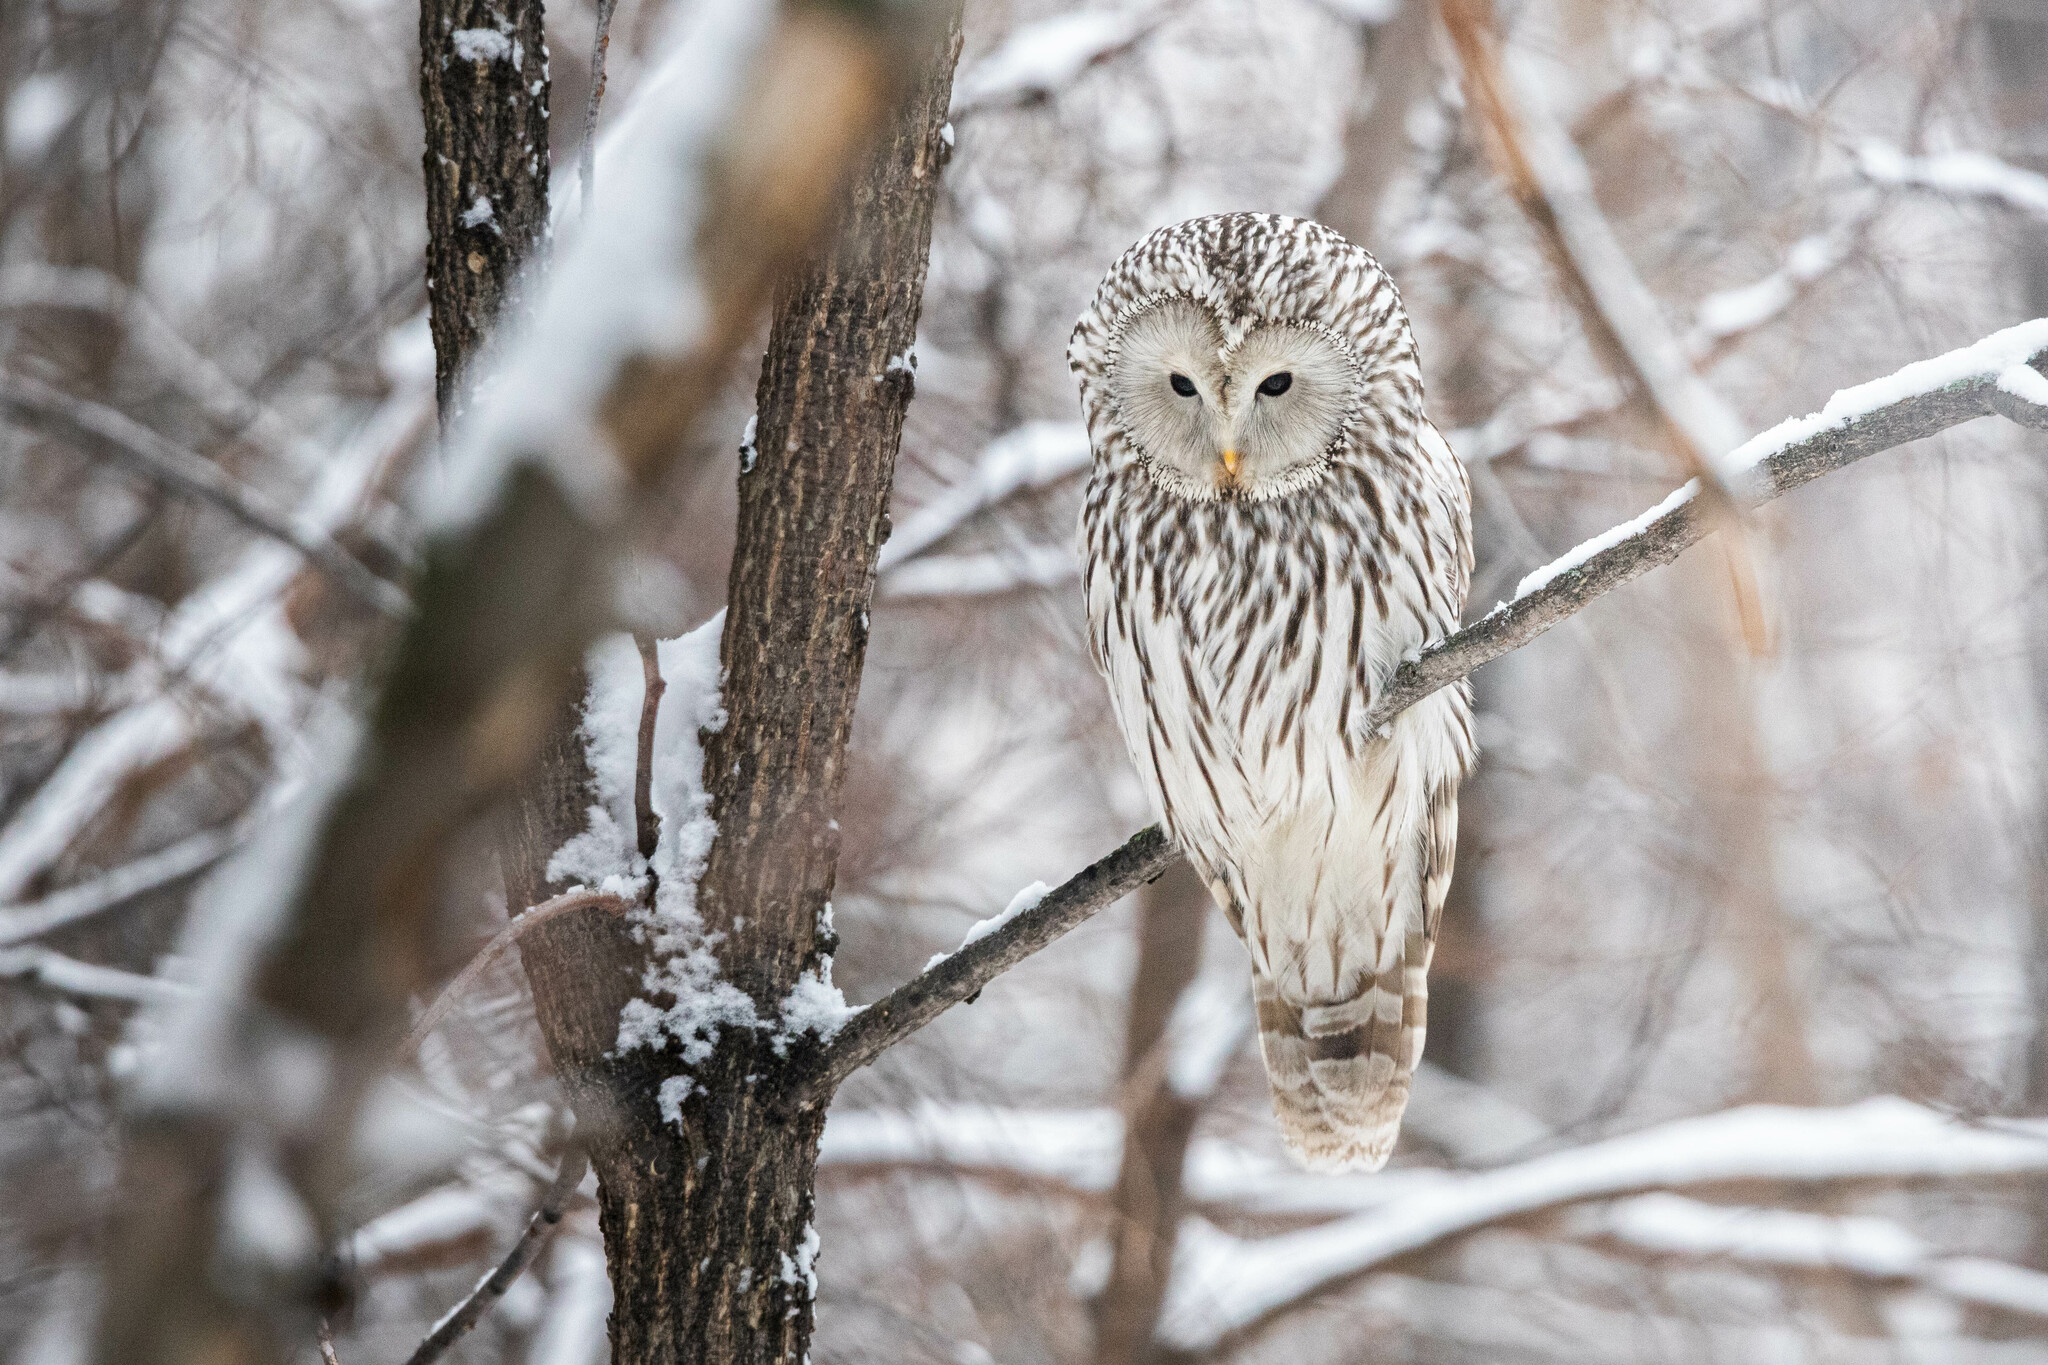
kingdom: Animalia
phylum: Chordata
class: Aves
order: Strigiformes
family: Strigidae
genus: Strix
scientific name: Strix uralensis
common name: Ural owl
